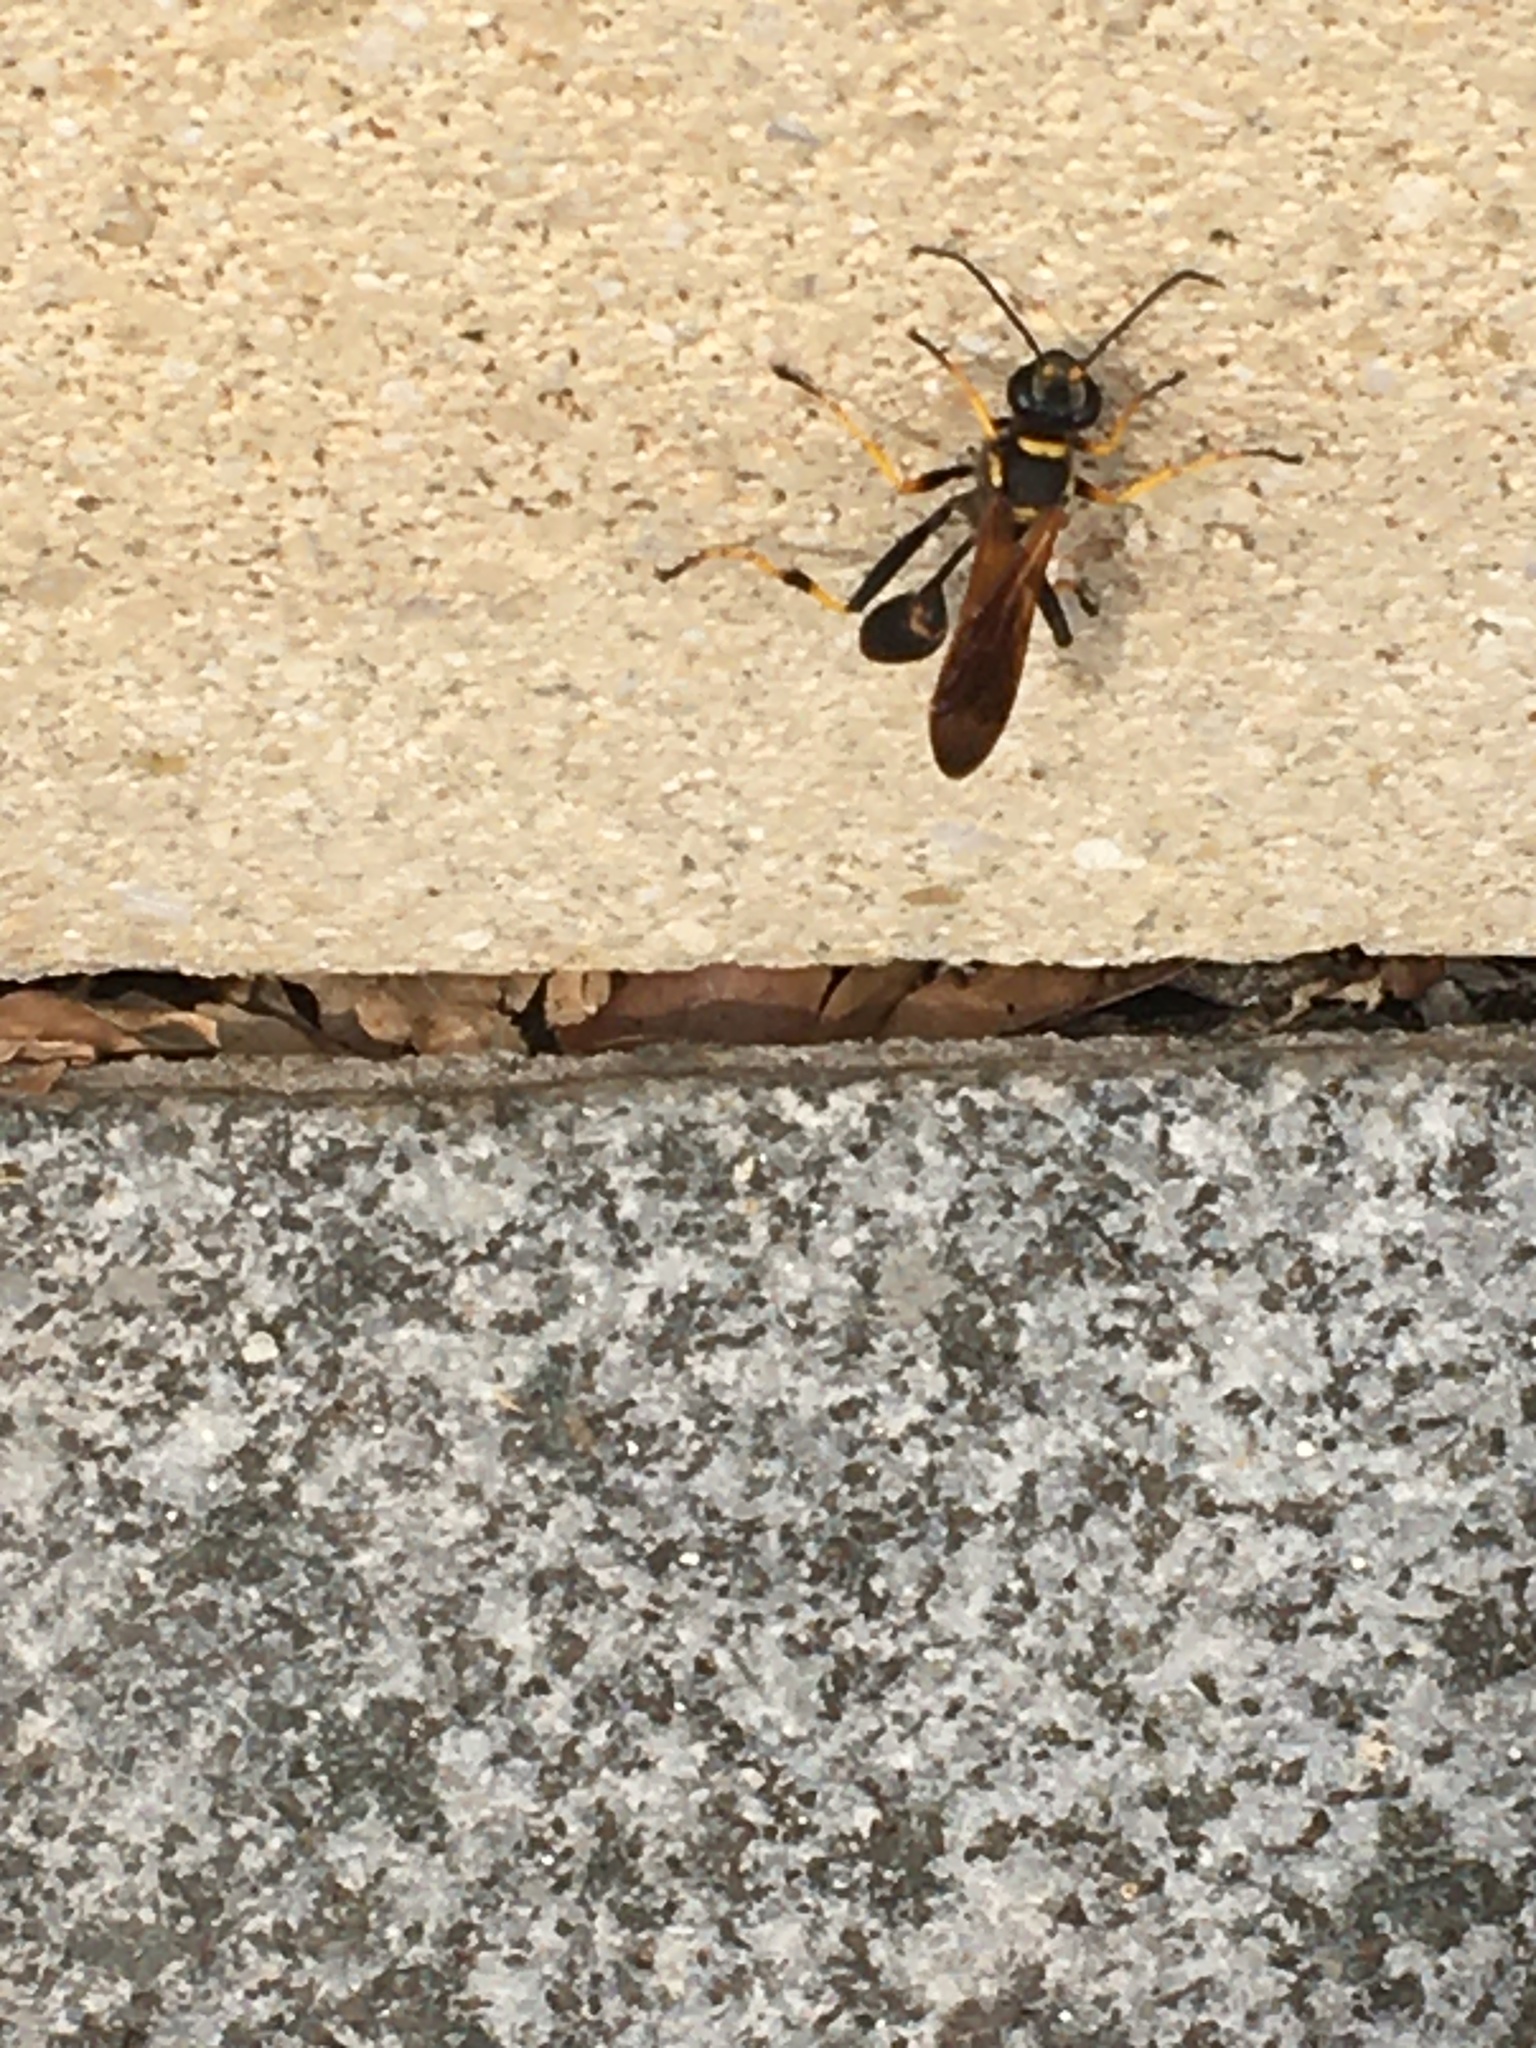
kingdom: Animalia
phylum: Arthropoda
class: Insecta
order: Hymenoptera
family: Sphecidae
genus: Sceliphron
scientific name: Sceliphron caementarium
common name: Mud dauber
